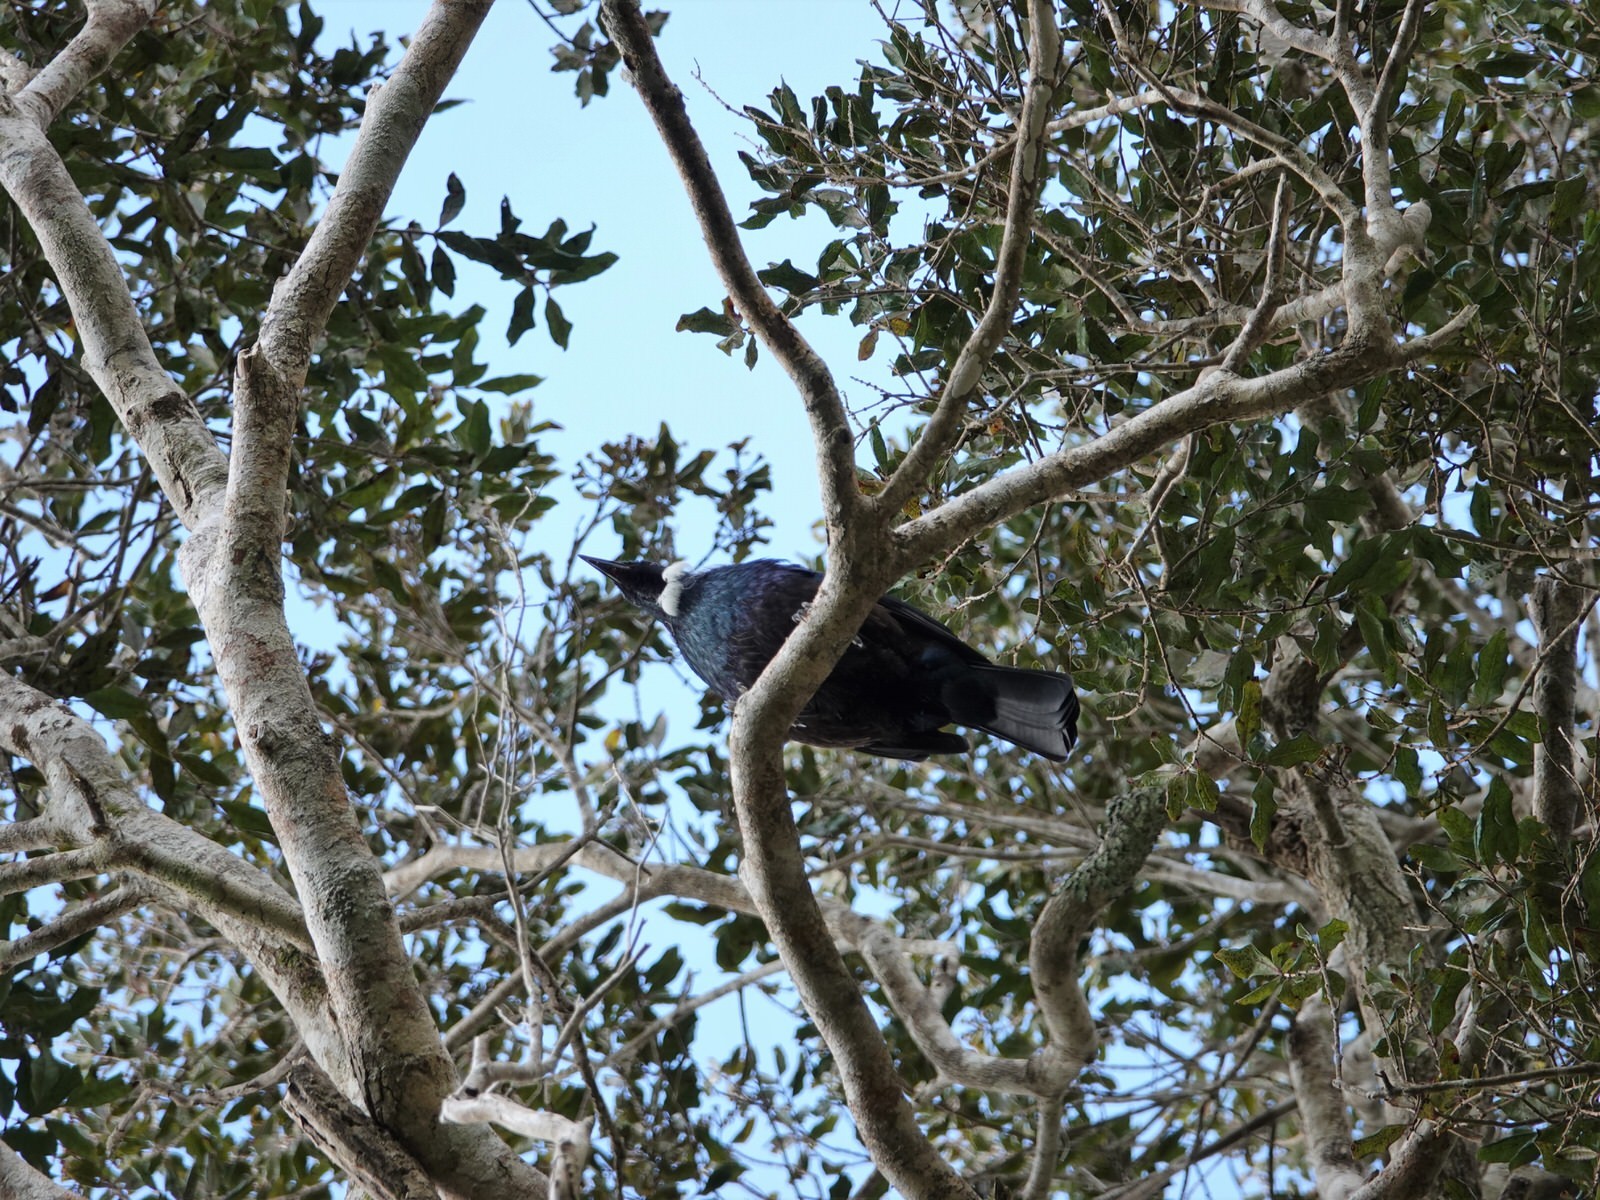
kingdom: Animalia
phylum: Chordata
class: Aves
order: Passeriformes
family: Meliphagidae
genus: Prosthemadera
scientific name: Prosthemadera novaeseelandiae
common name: Tui
